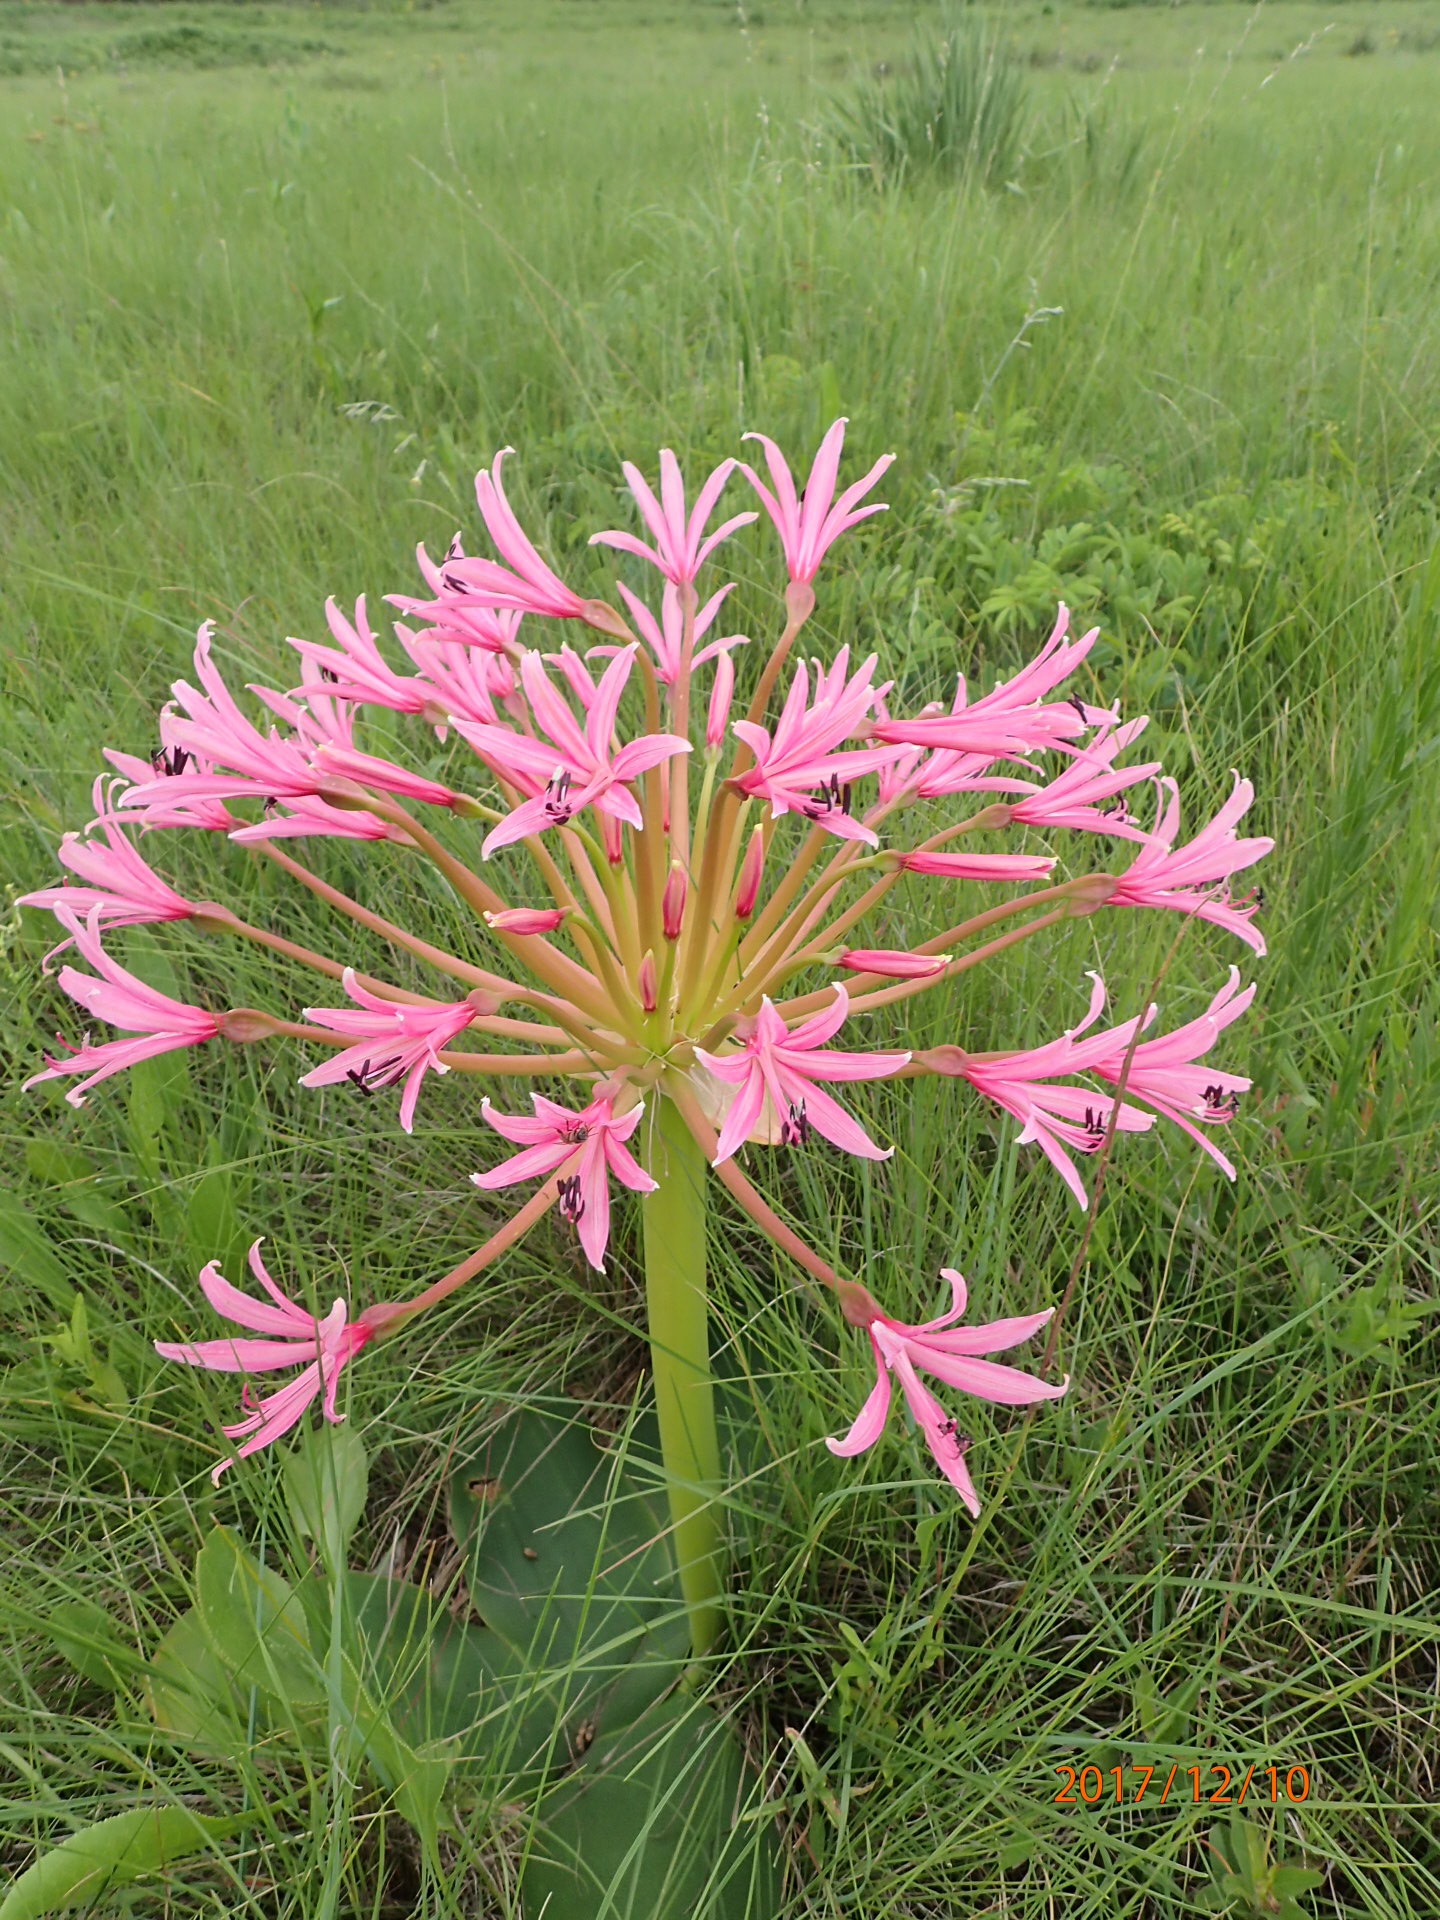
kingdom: Plantae
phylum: Tracheophyta
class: Liliopsida
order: Asparagales
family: Amaryllidaceae
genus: Brunsvigia
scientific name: Brunsvigia radulosa
